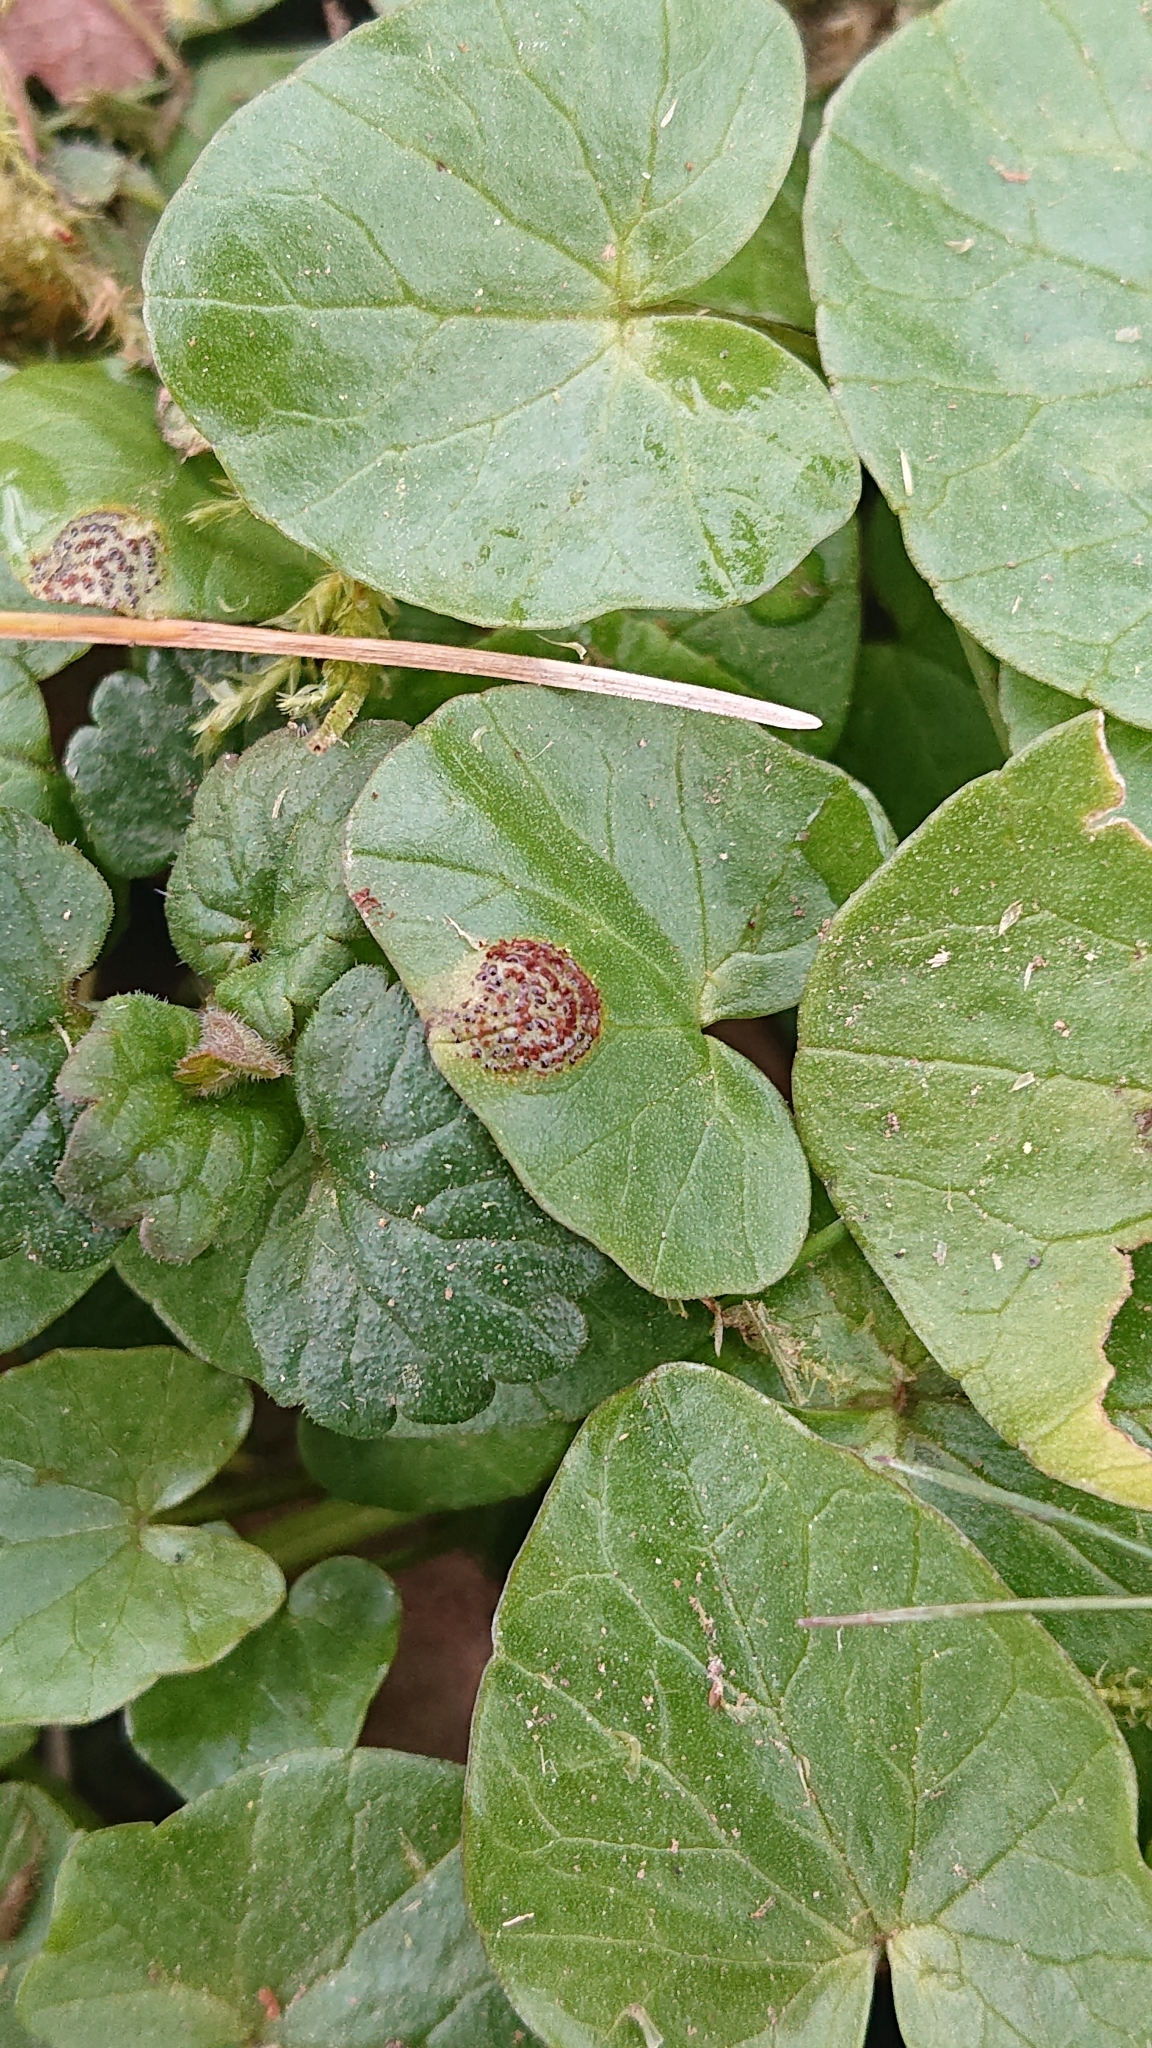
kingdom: Fungi
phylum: Basidiomycota
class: Pucciniomycetes
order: Pucciniales
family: Pucciniaceae
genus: Uromyces
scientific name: Uromyces ficariae
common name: Bitter chocolate rust
